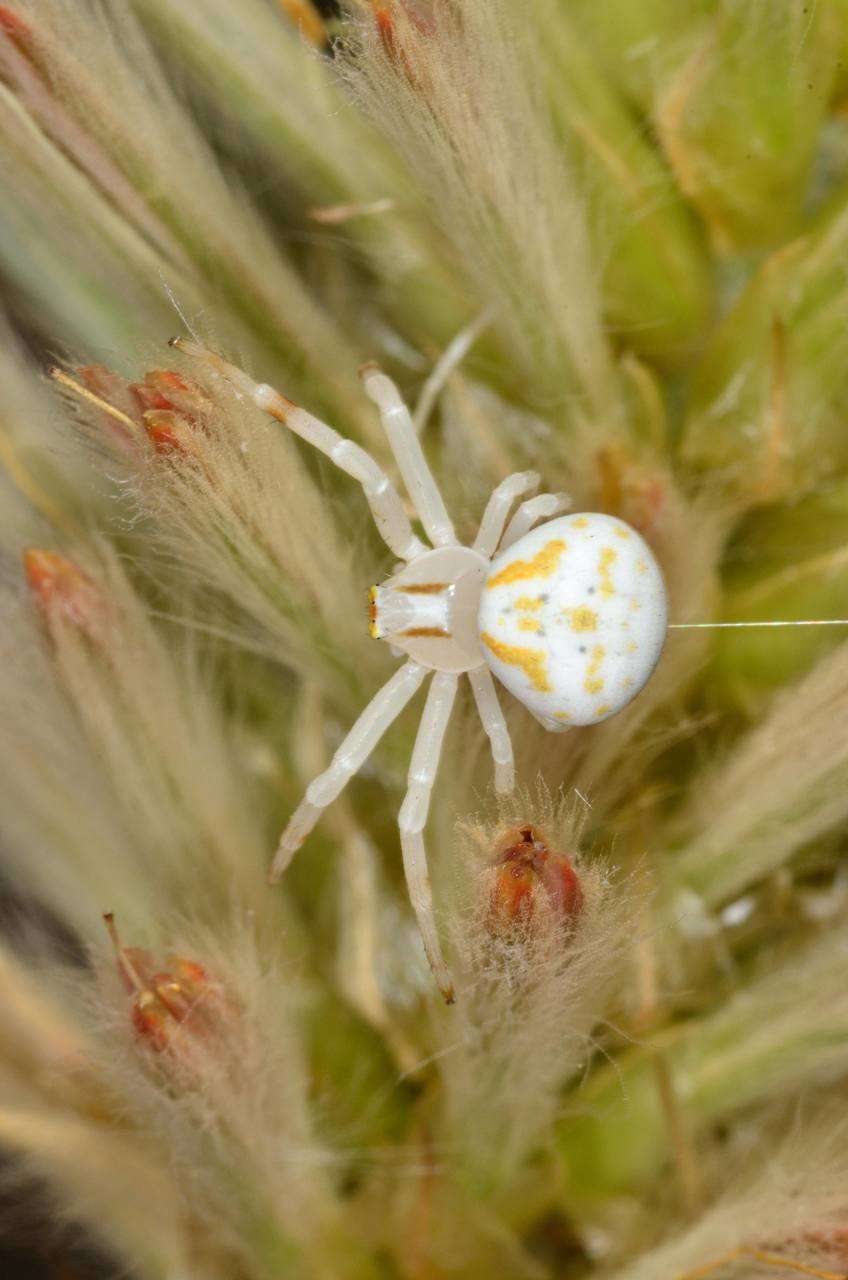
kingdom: Animalia
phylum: Arthropoda
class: Arachnida
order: Araneae
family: Thomisidae
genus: Zygometis
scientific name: Zygometis xanthogaster
